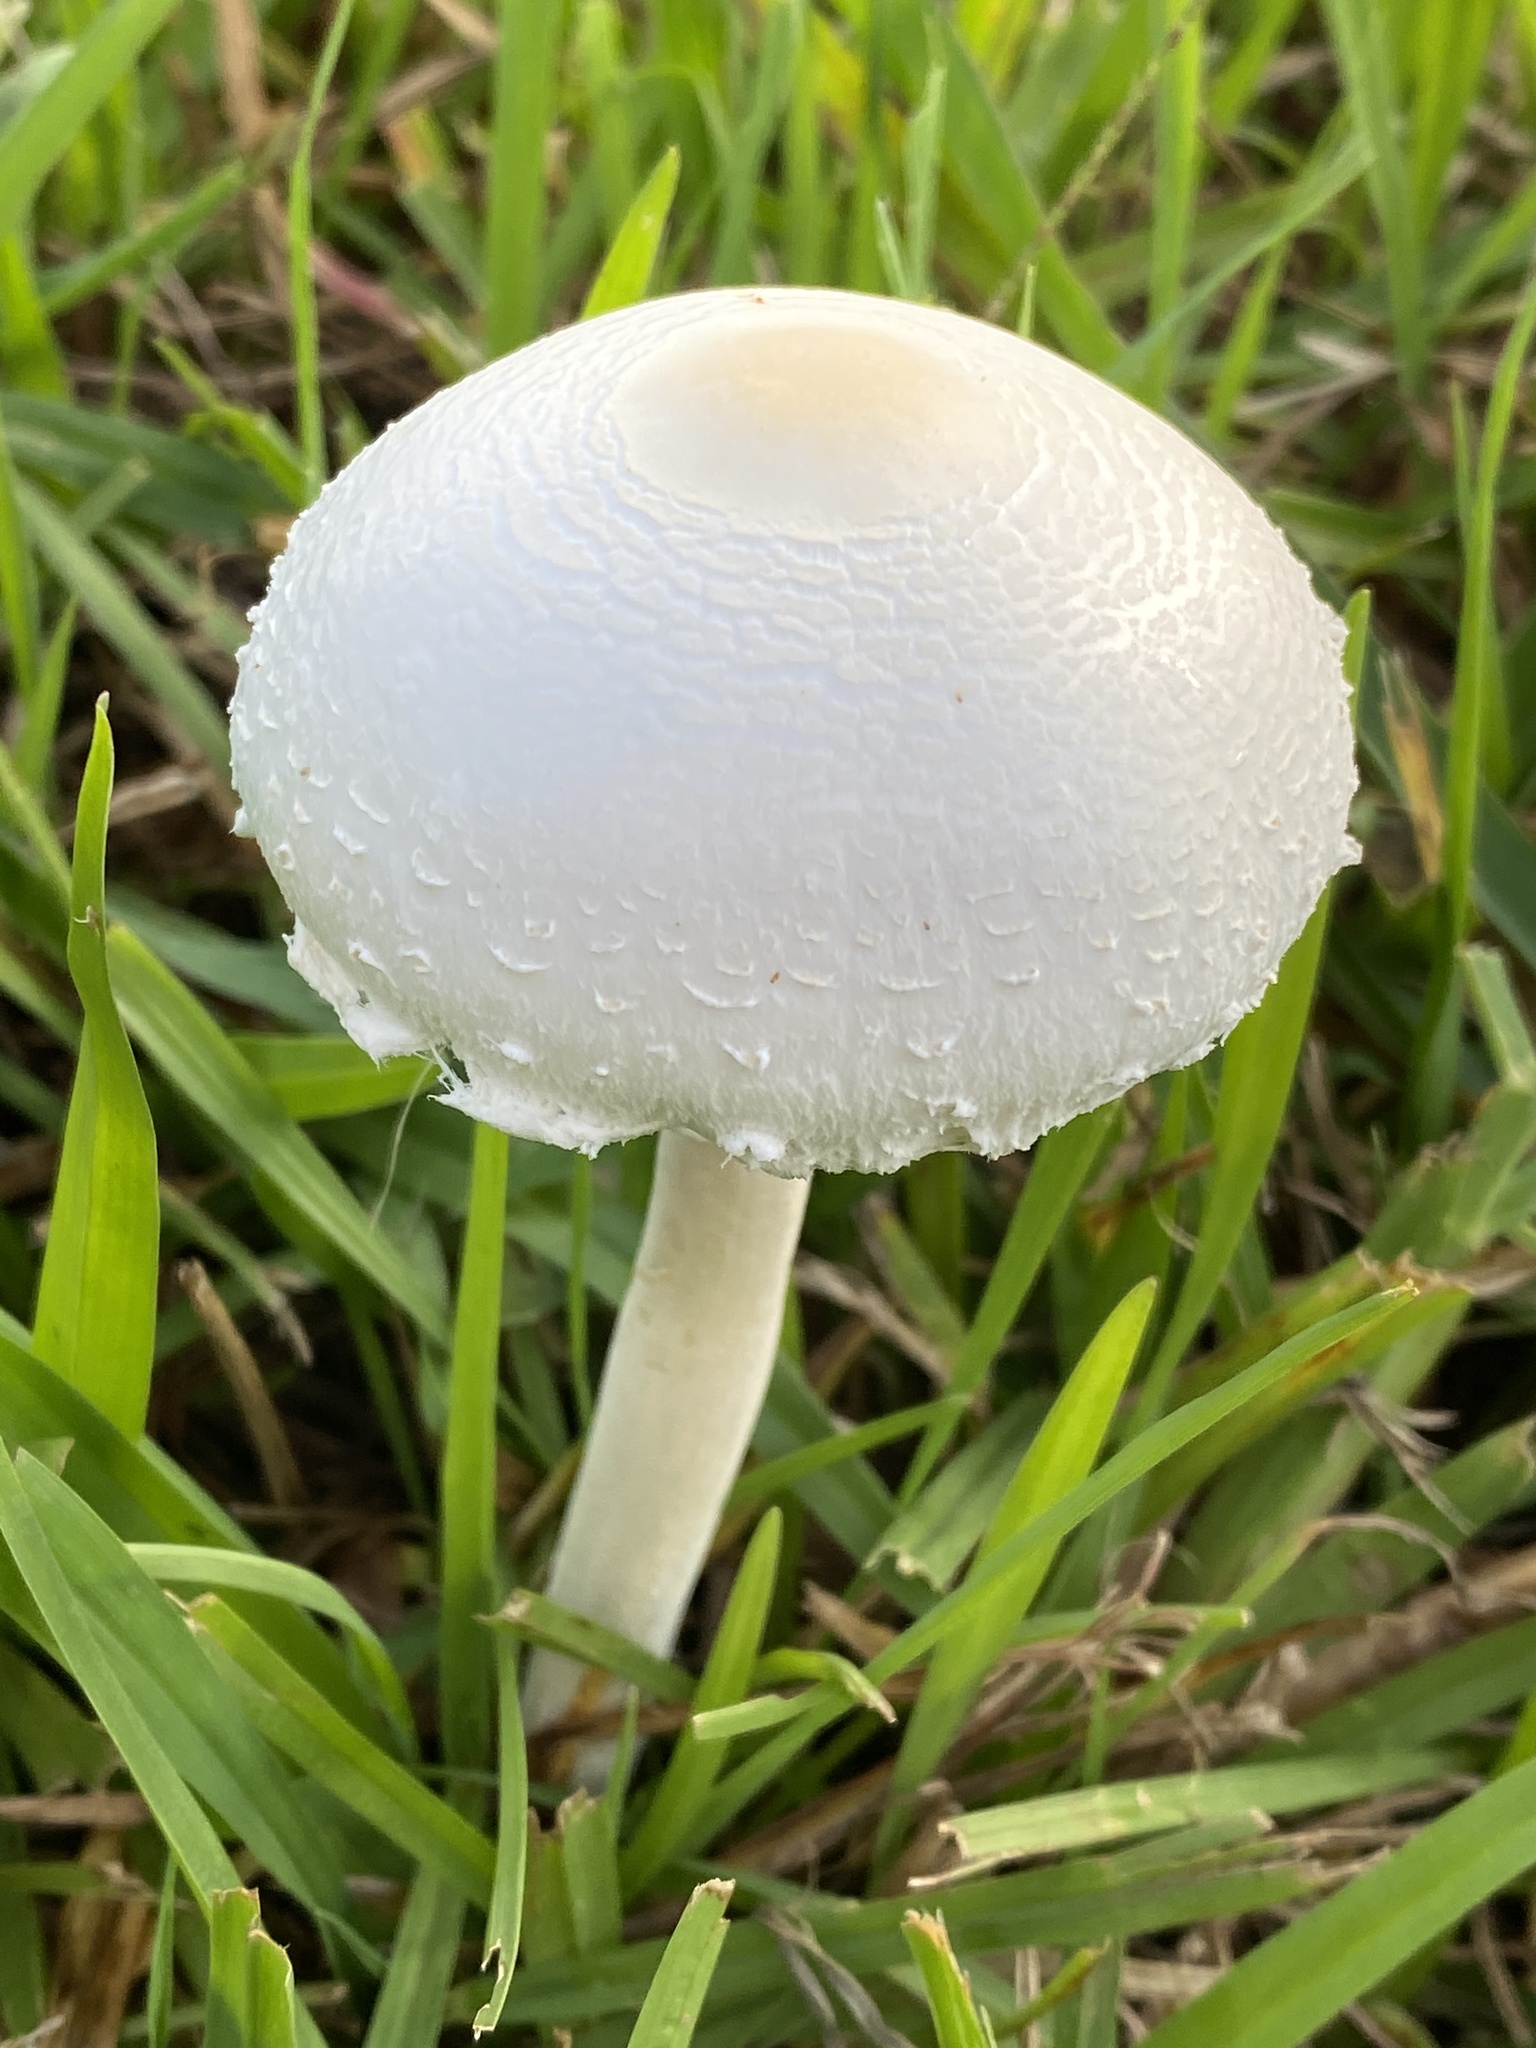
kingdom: Fungi
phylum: Basidiomycota
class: Agaricomycetes
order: Agaricales
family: Agaricaceae
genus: Macrolepiota
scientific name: Macrolepiota dolichaula
